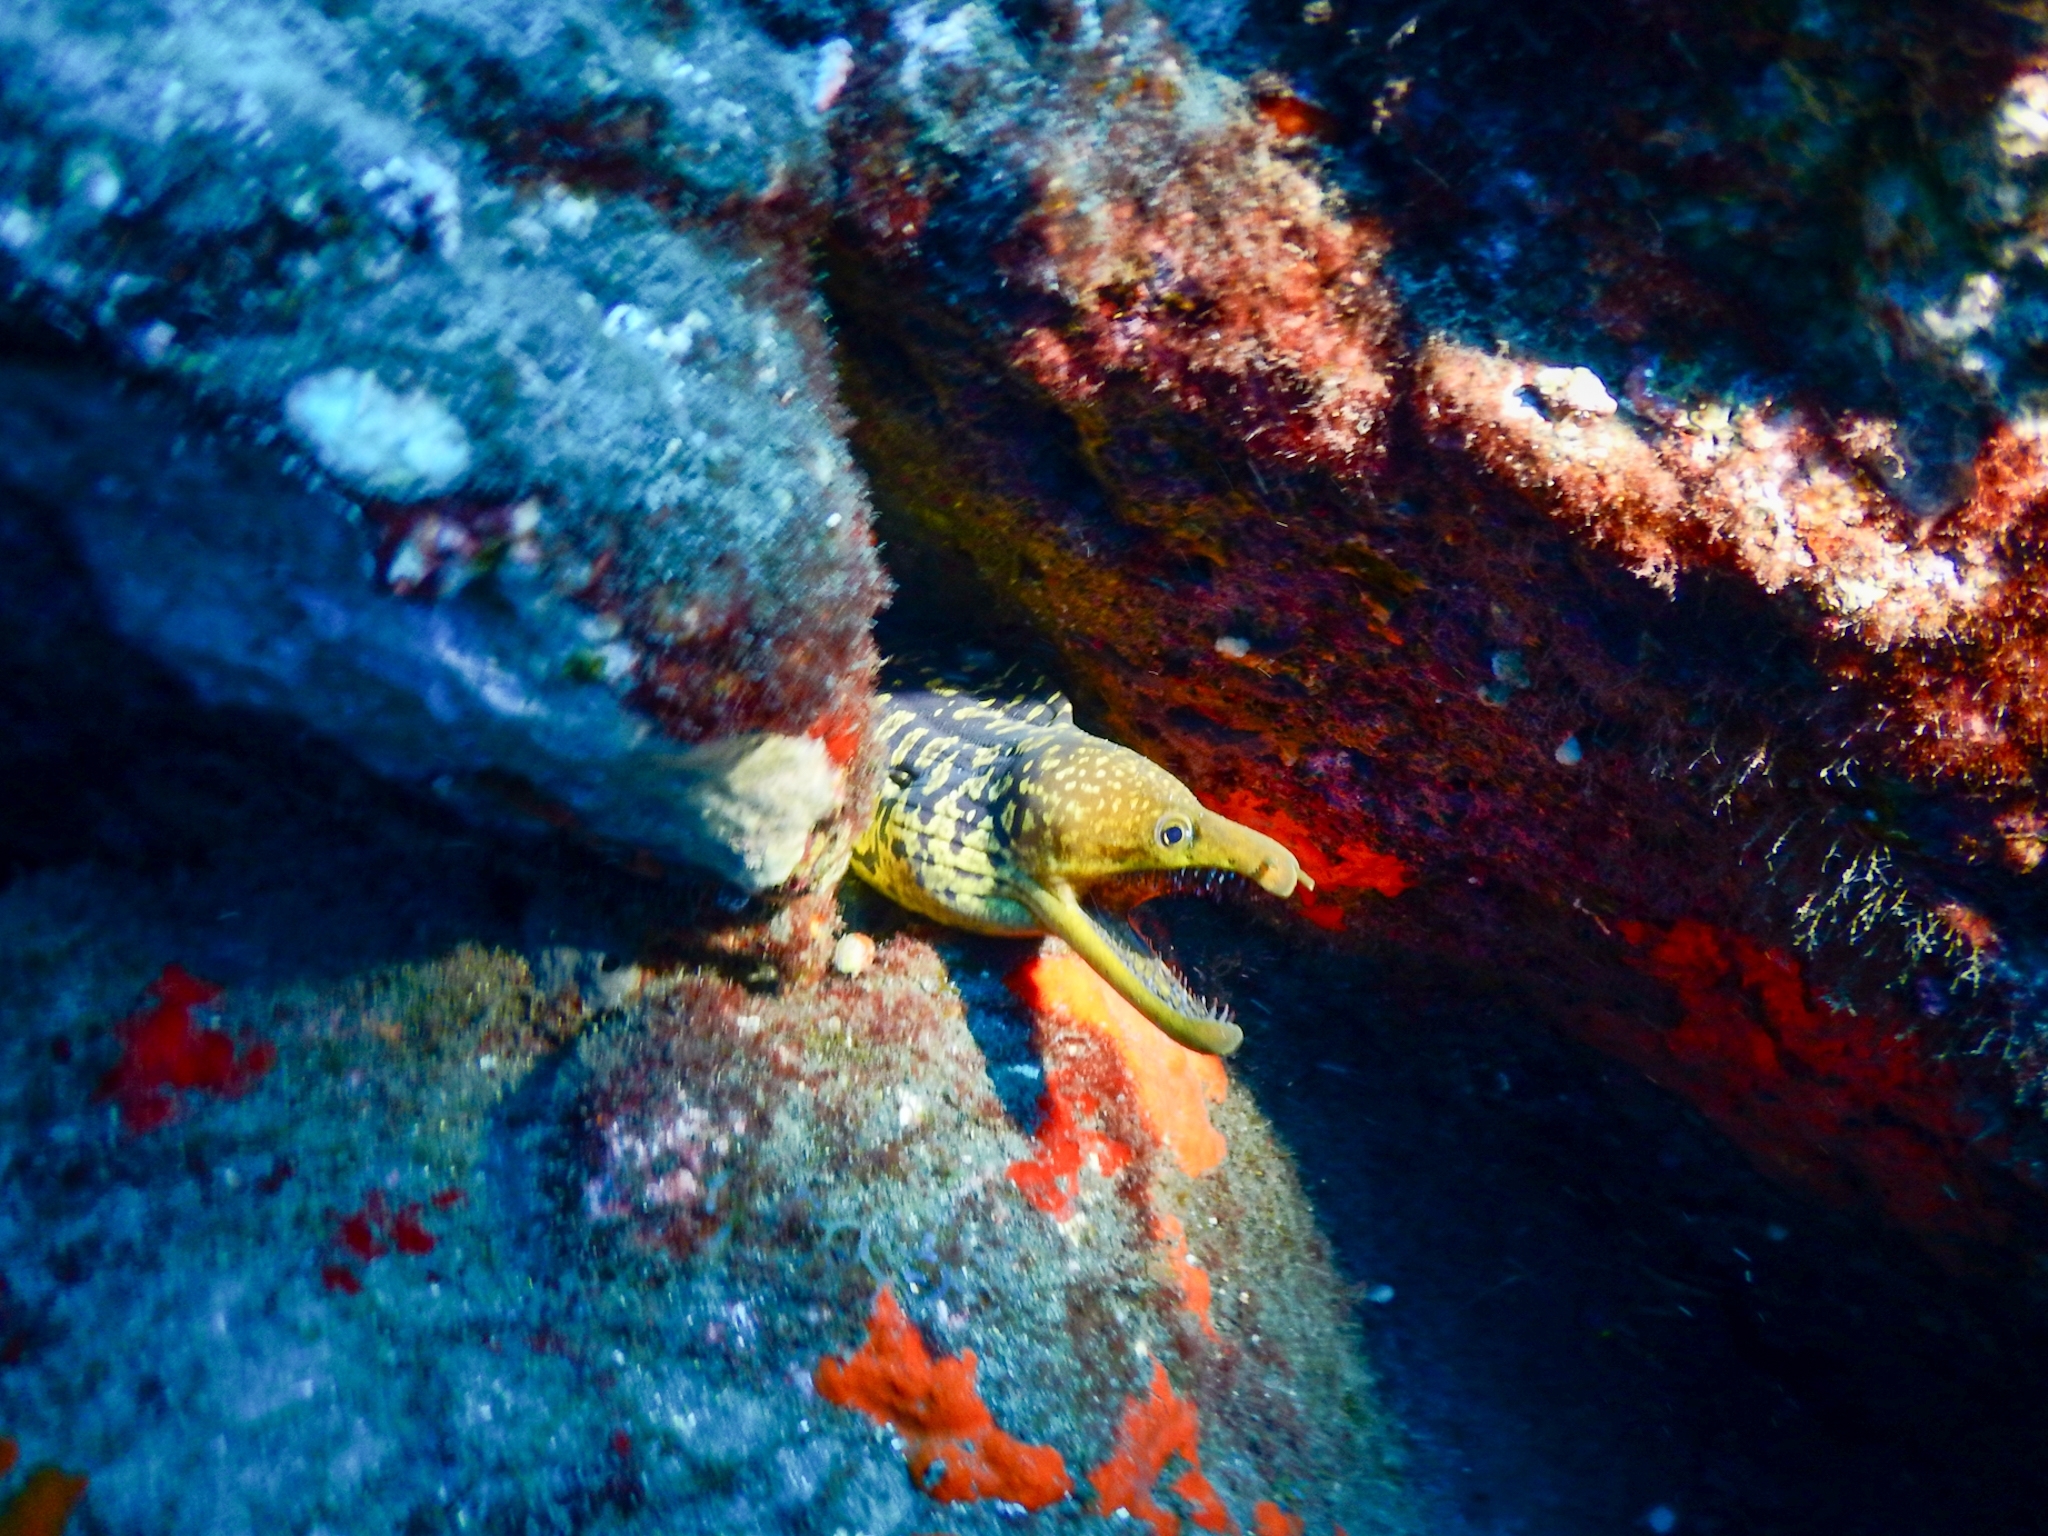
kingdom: Animalia
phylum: Chordata
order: Anguilliformes
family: Muraenidae
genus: Enchelycore
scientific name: Enchelycore anatina
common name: Fangtooth moray
